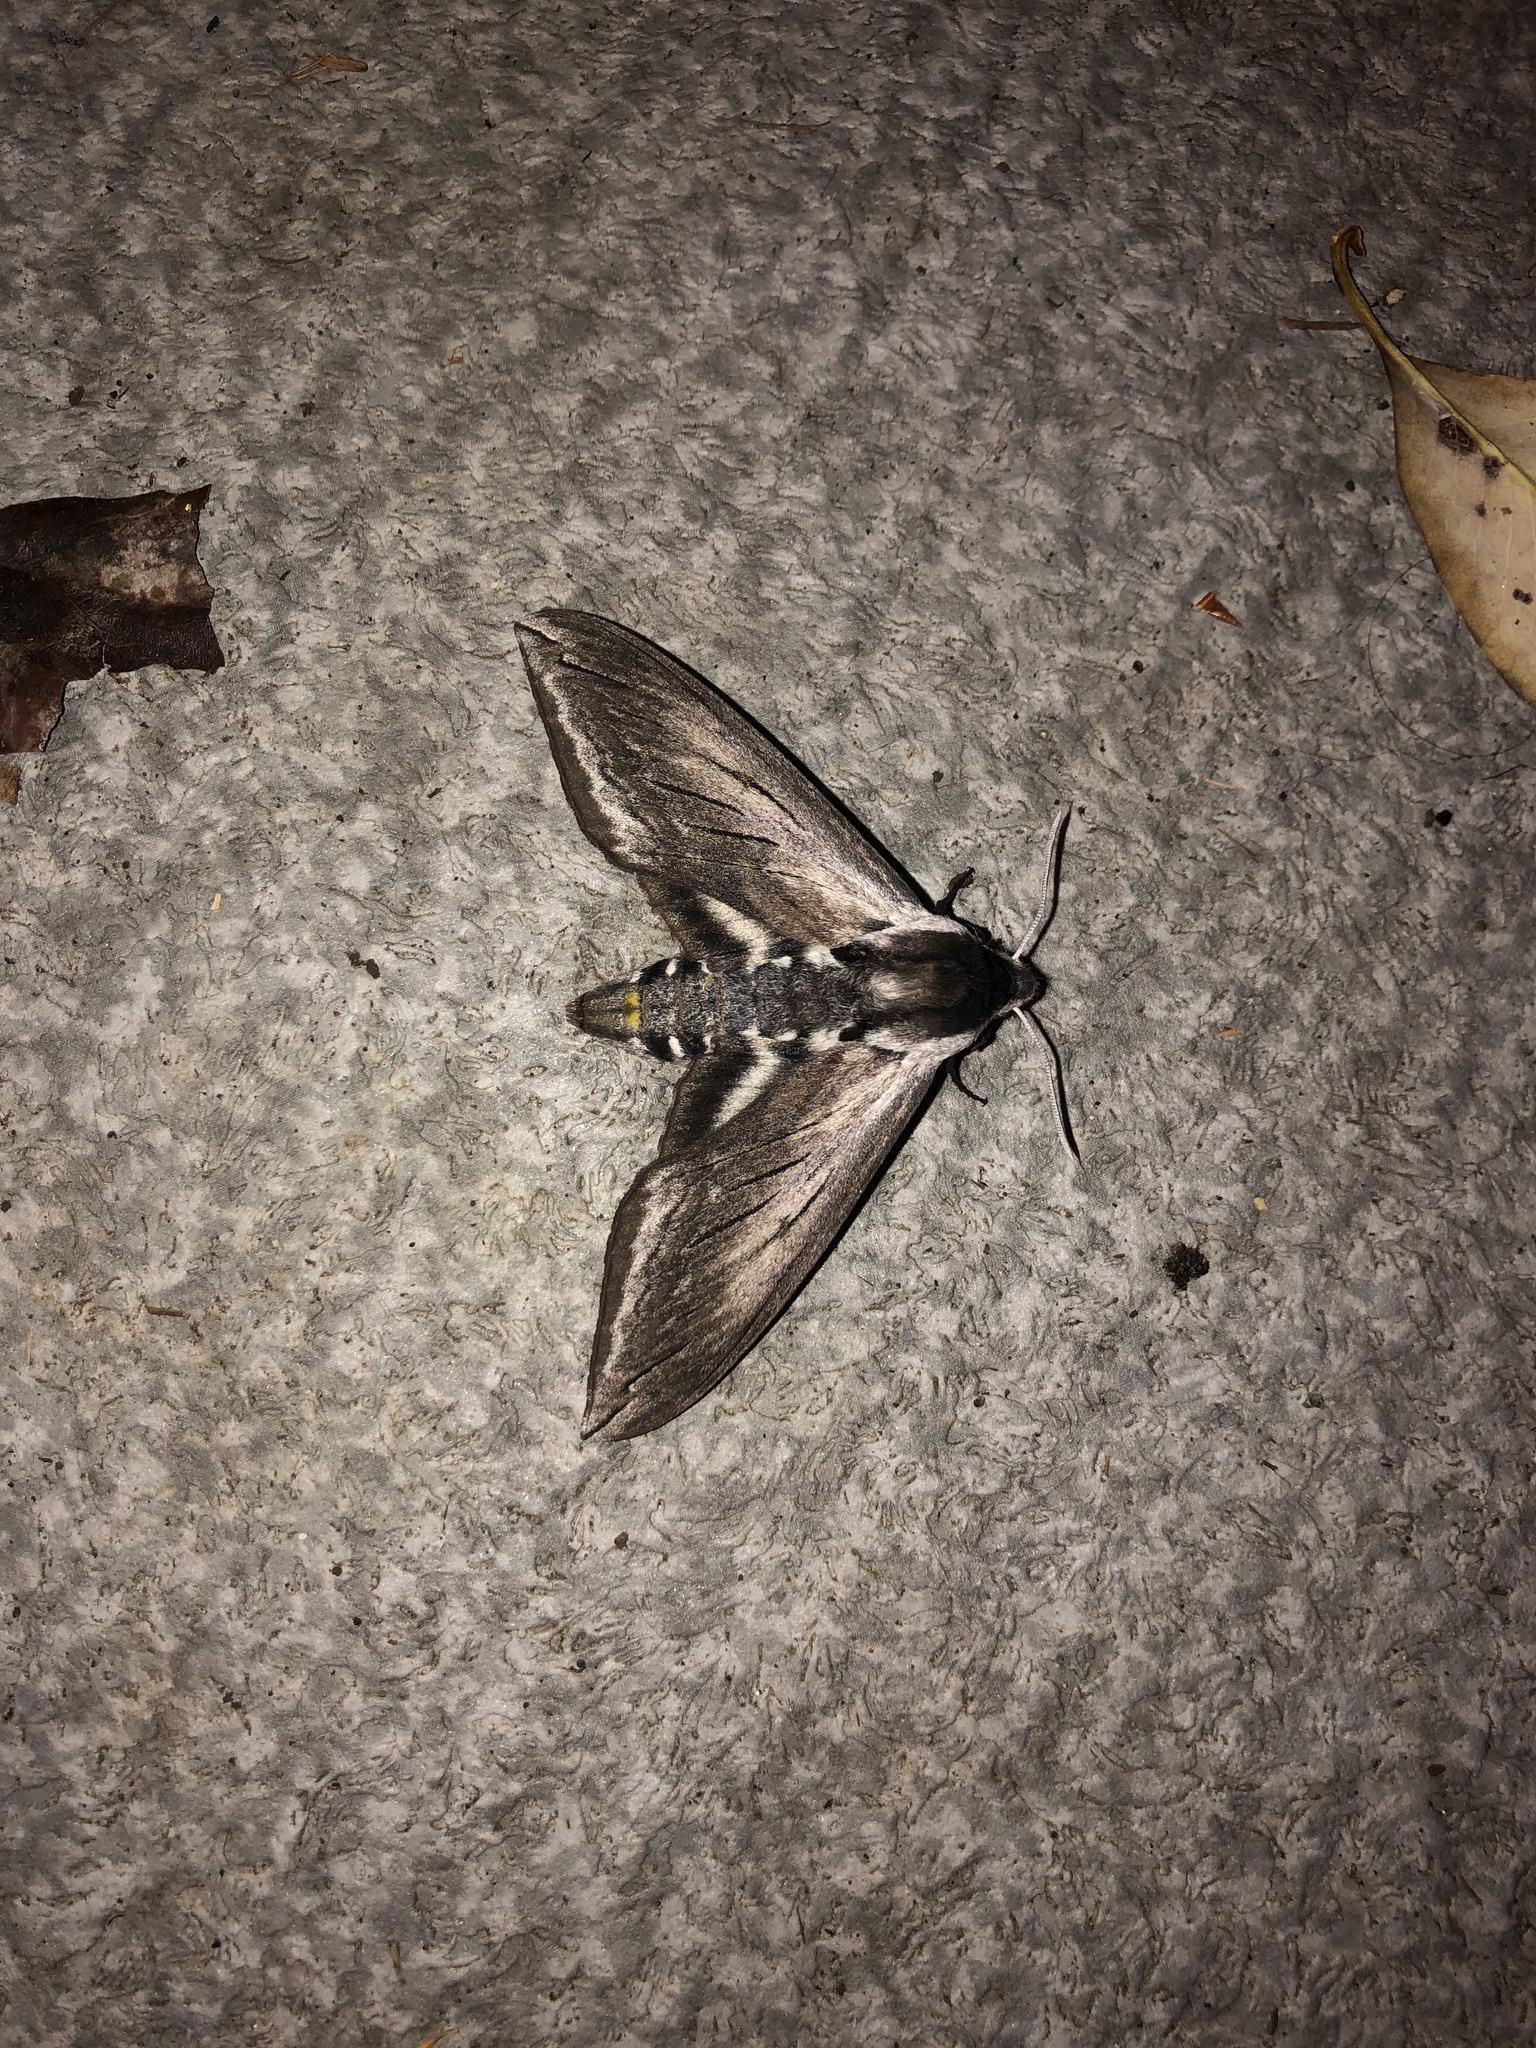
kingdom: Animalia
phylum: Arthropoda
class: Insecta
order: Lepidoptera
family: Sphingidae
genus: Sphinx
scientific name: Sphinx perelegans
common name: Elegant sphinx
